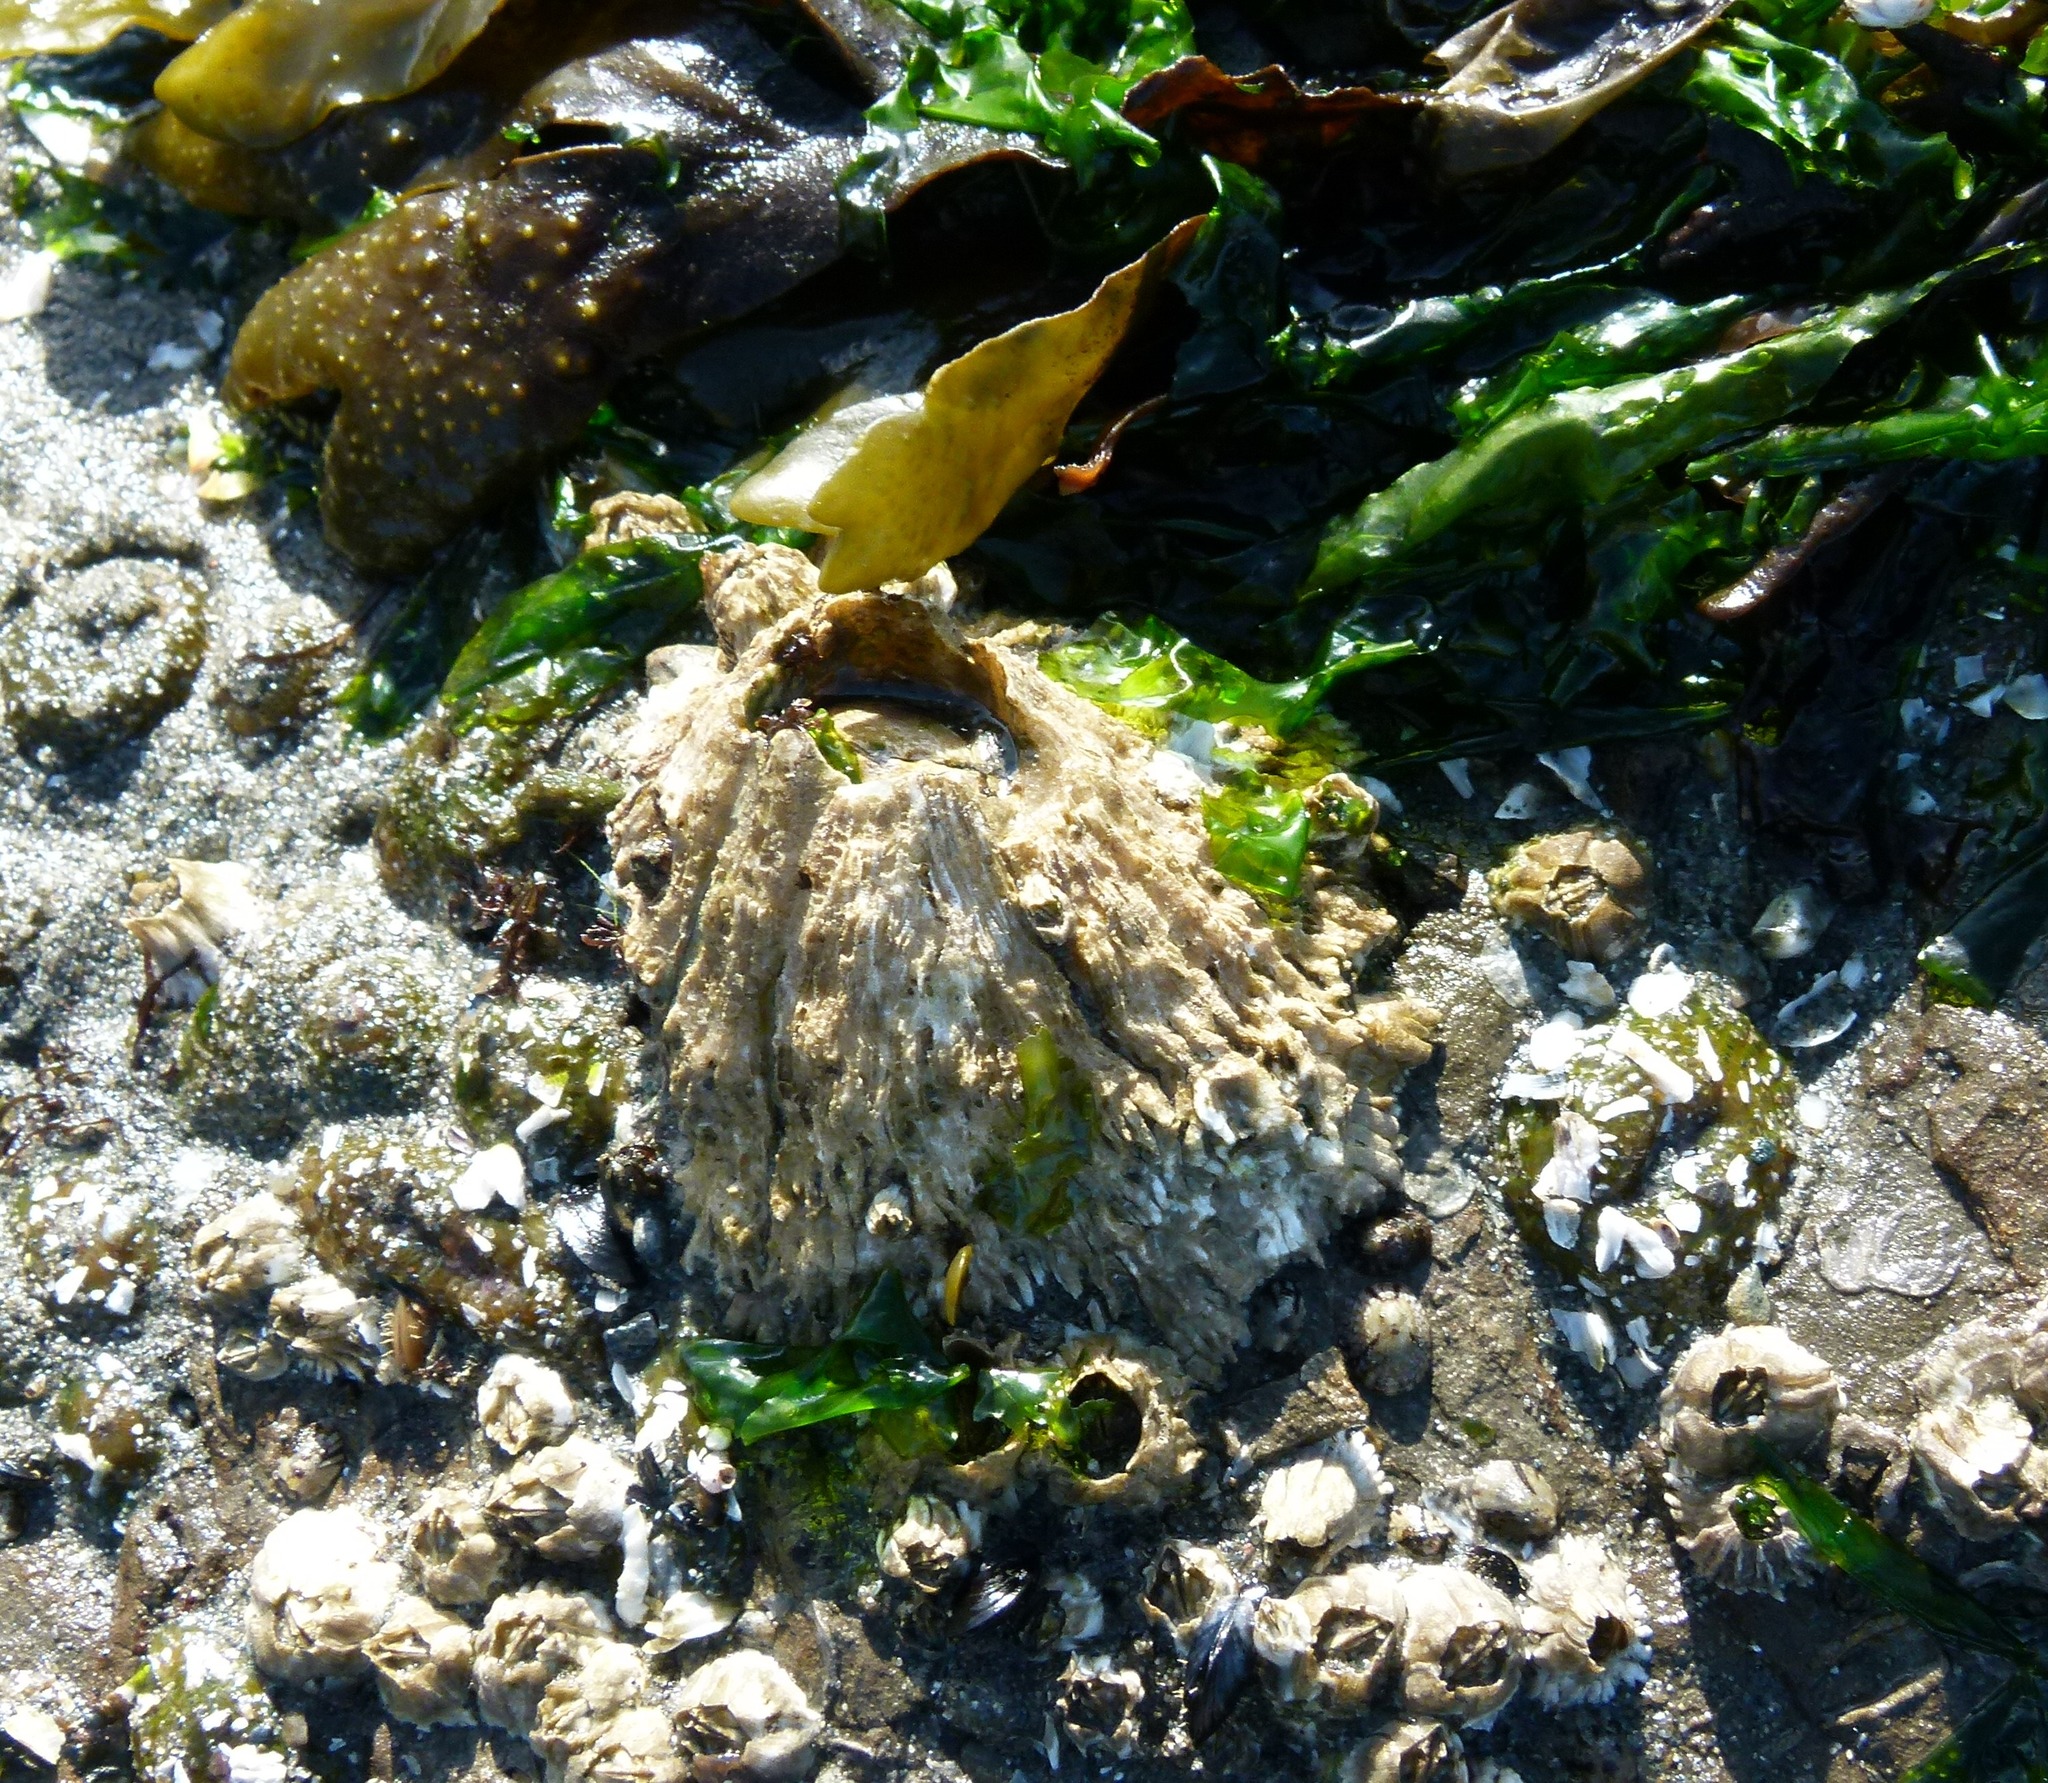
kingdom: Animalia
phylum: Arthropoda
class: Maxillopoda
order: Sessilia
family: Archaeobalanidae
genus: Semibalanus
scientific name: Semibalanus cariosus
